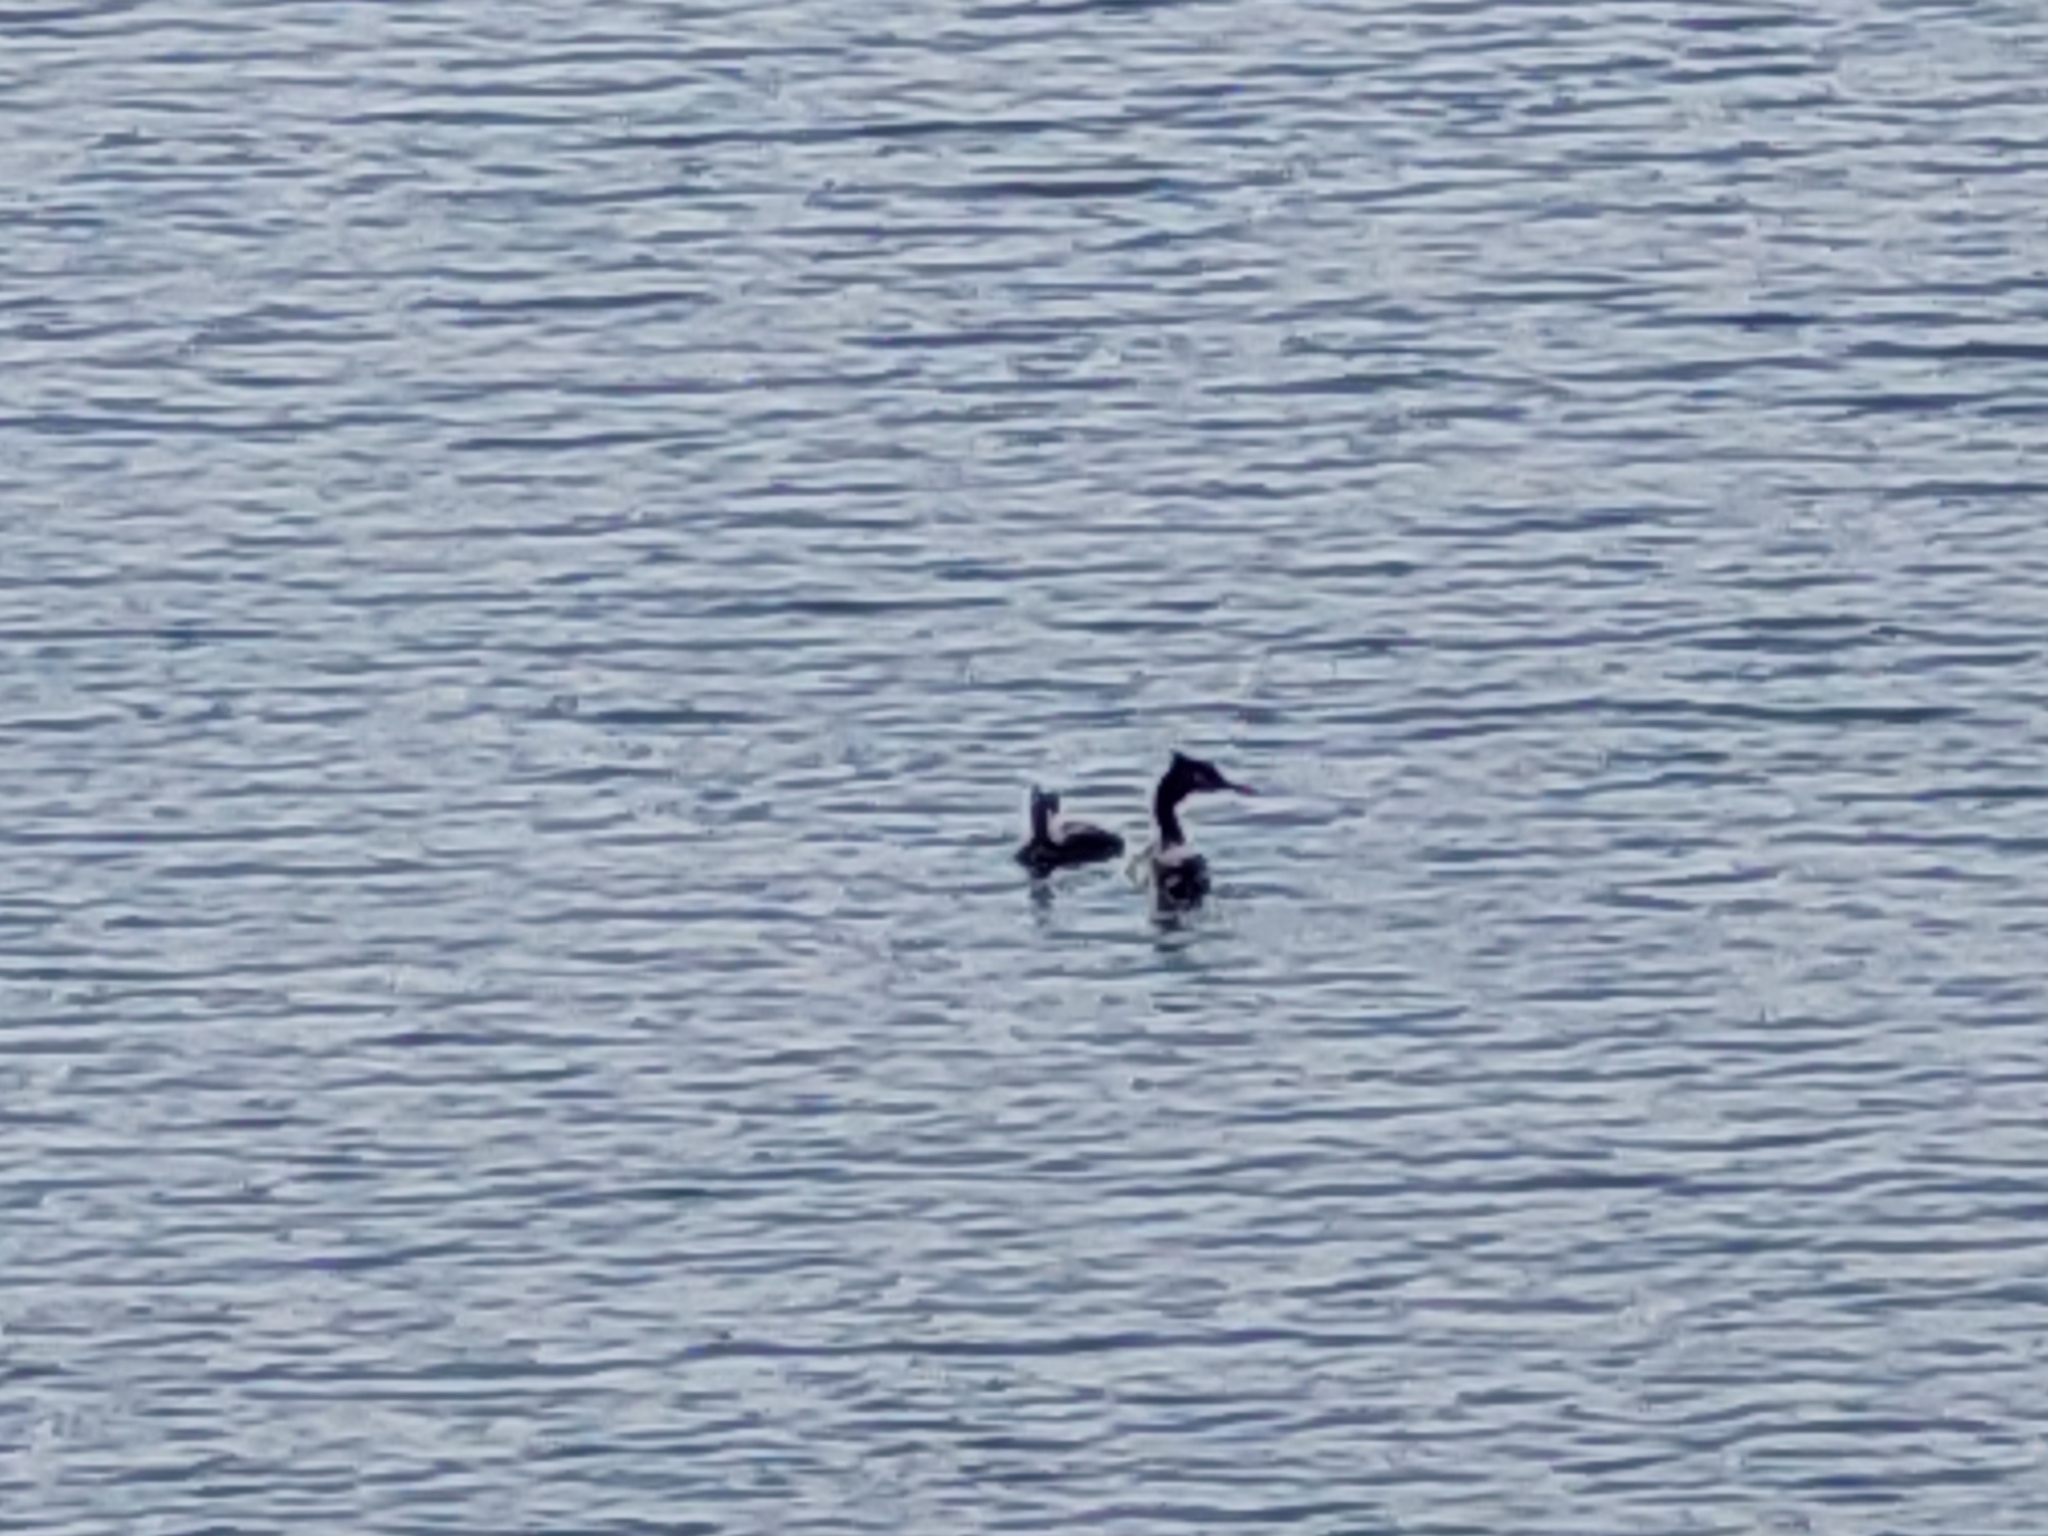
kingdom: Animalia
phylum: Chordata
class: Aves
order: Podicipediformes
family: Podicipedidae
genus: Podiceps
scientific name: Podiceps cristatus
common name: Great crested grebe
